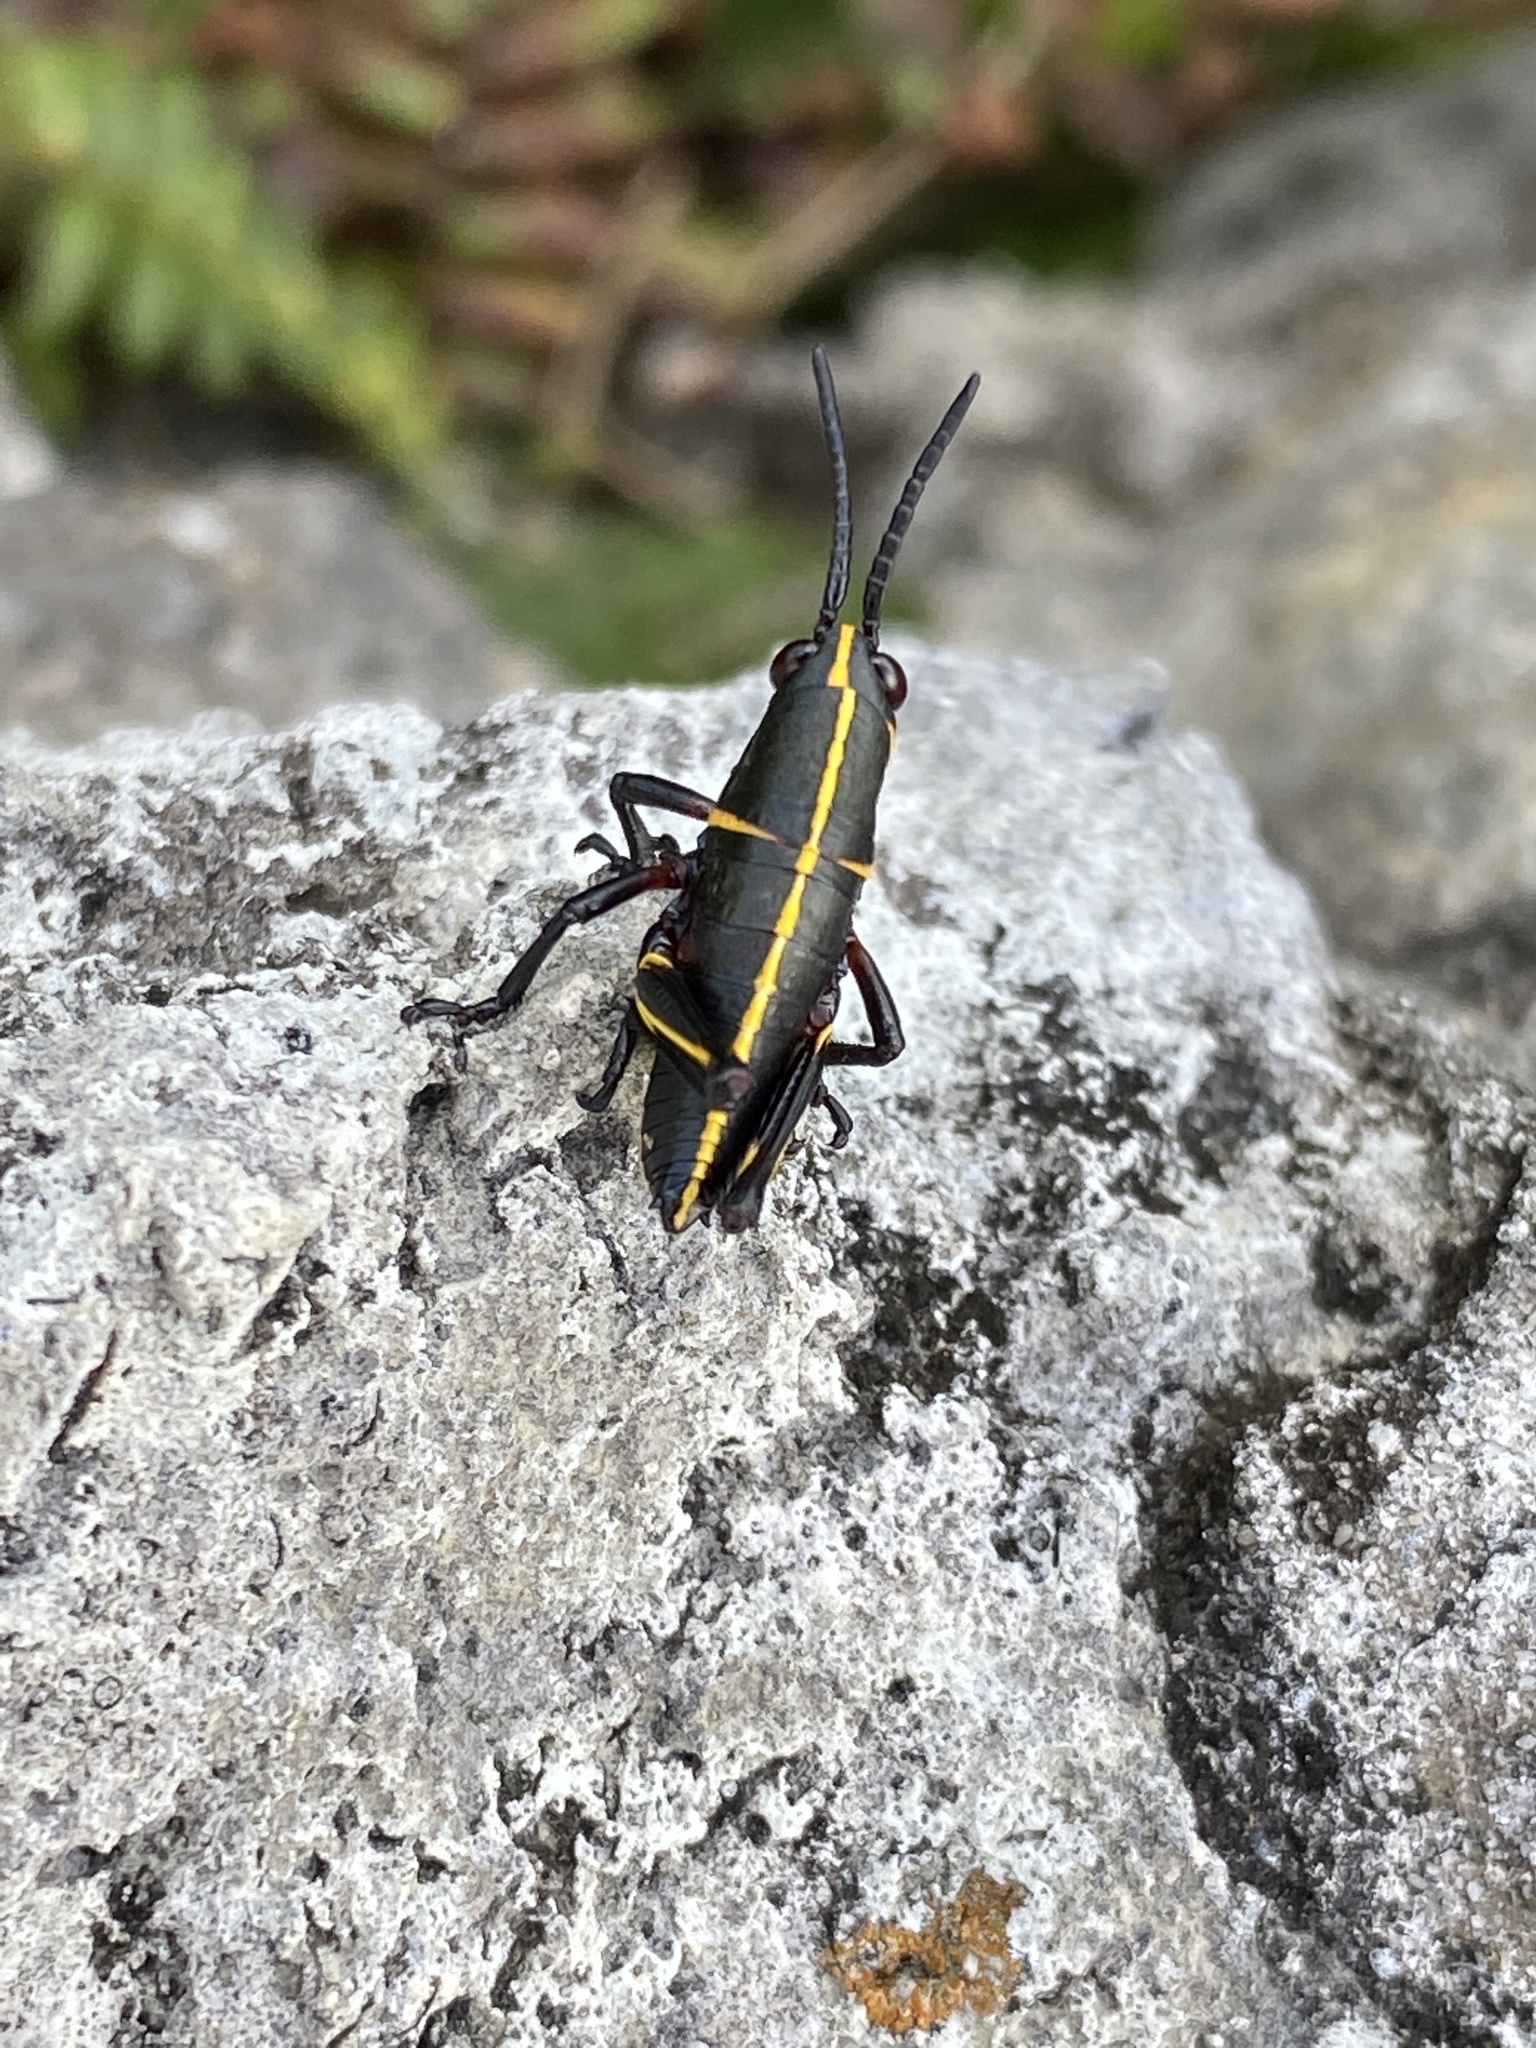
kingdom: Animalia
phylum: Arthropoda
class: Insecta
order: Orthoptera
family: Romaleidae
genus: Romalea
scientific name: Romalea microptera
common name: Eastern lubber grasshopper
